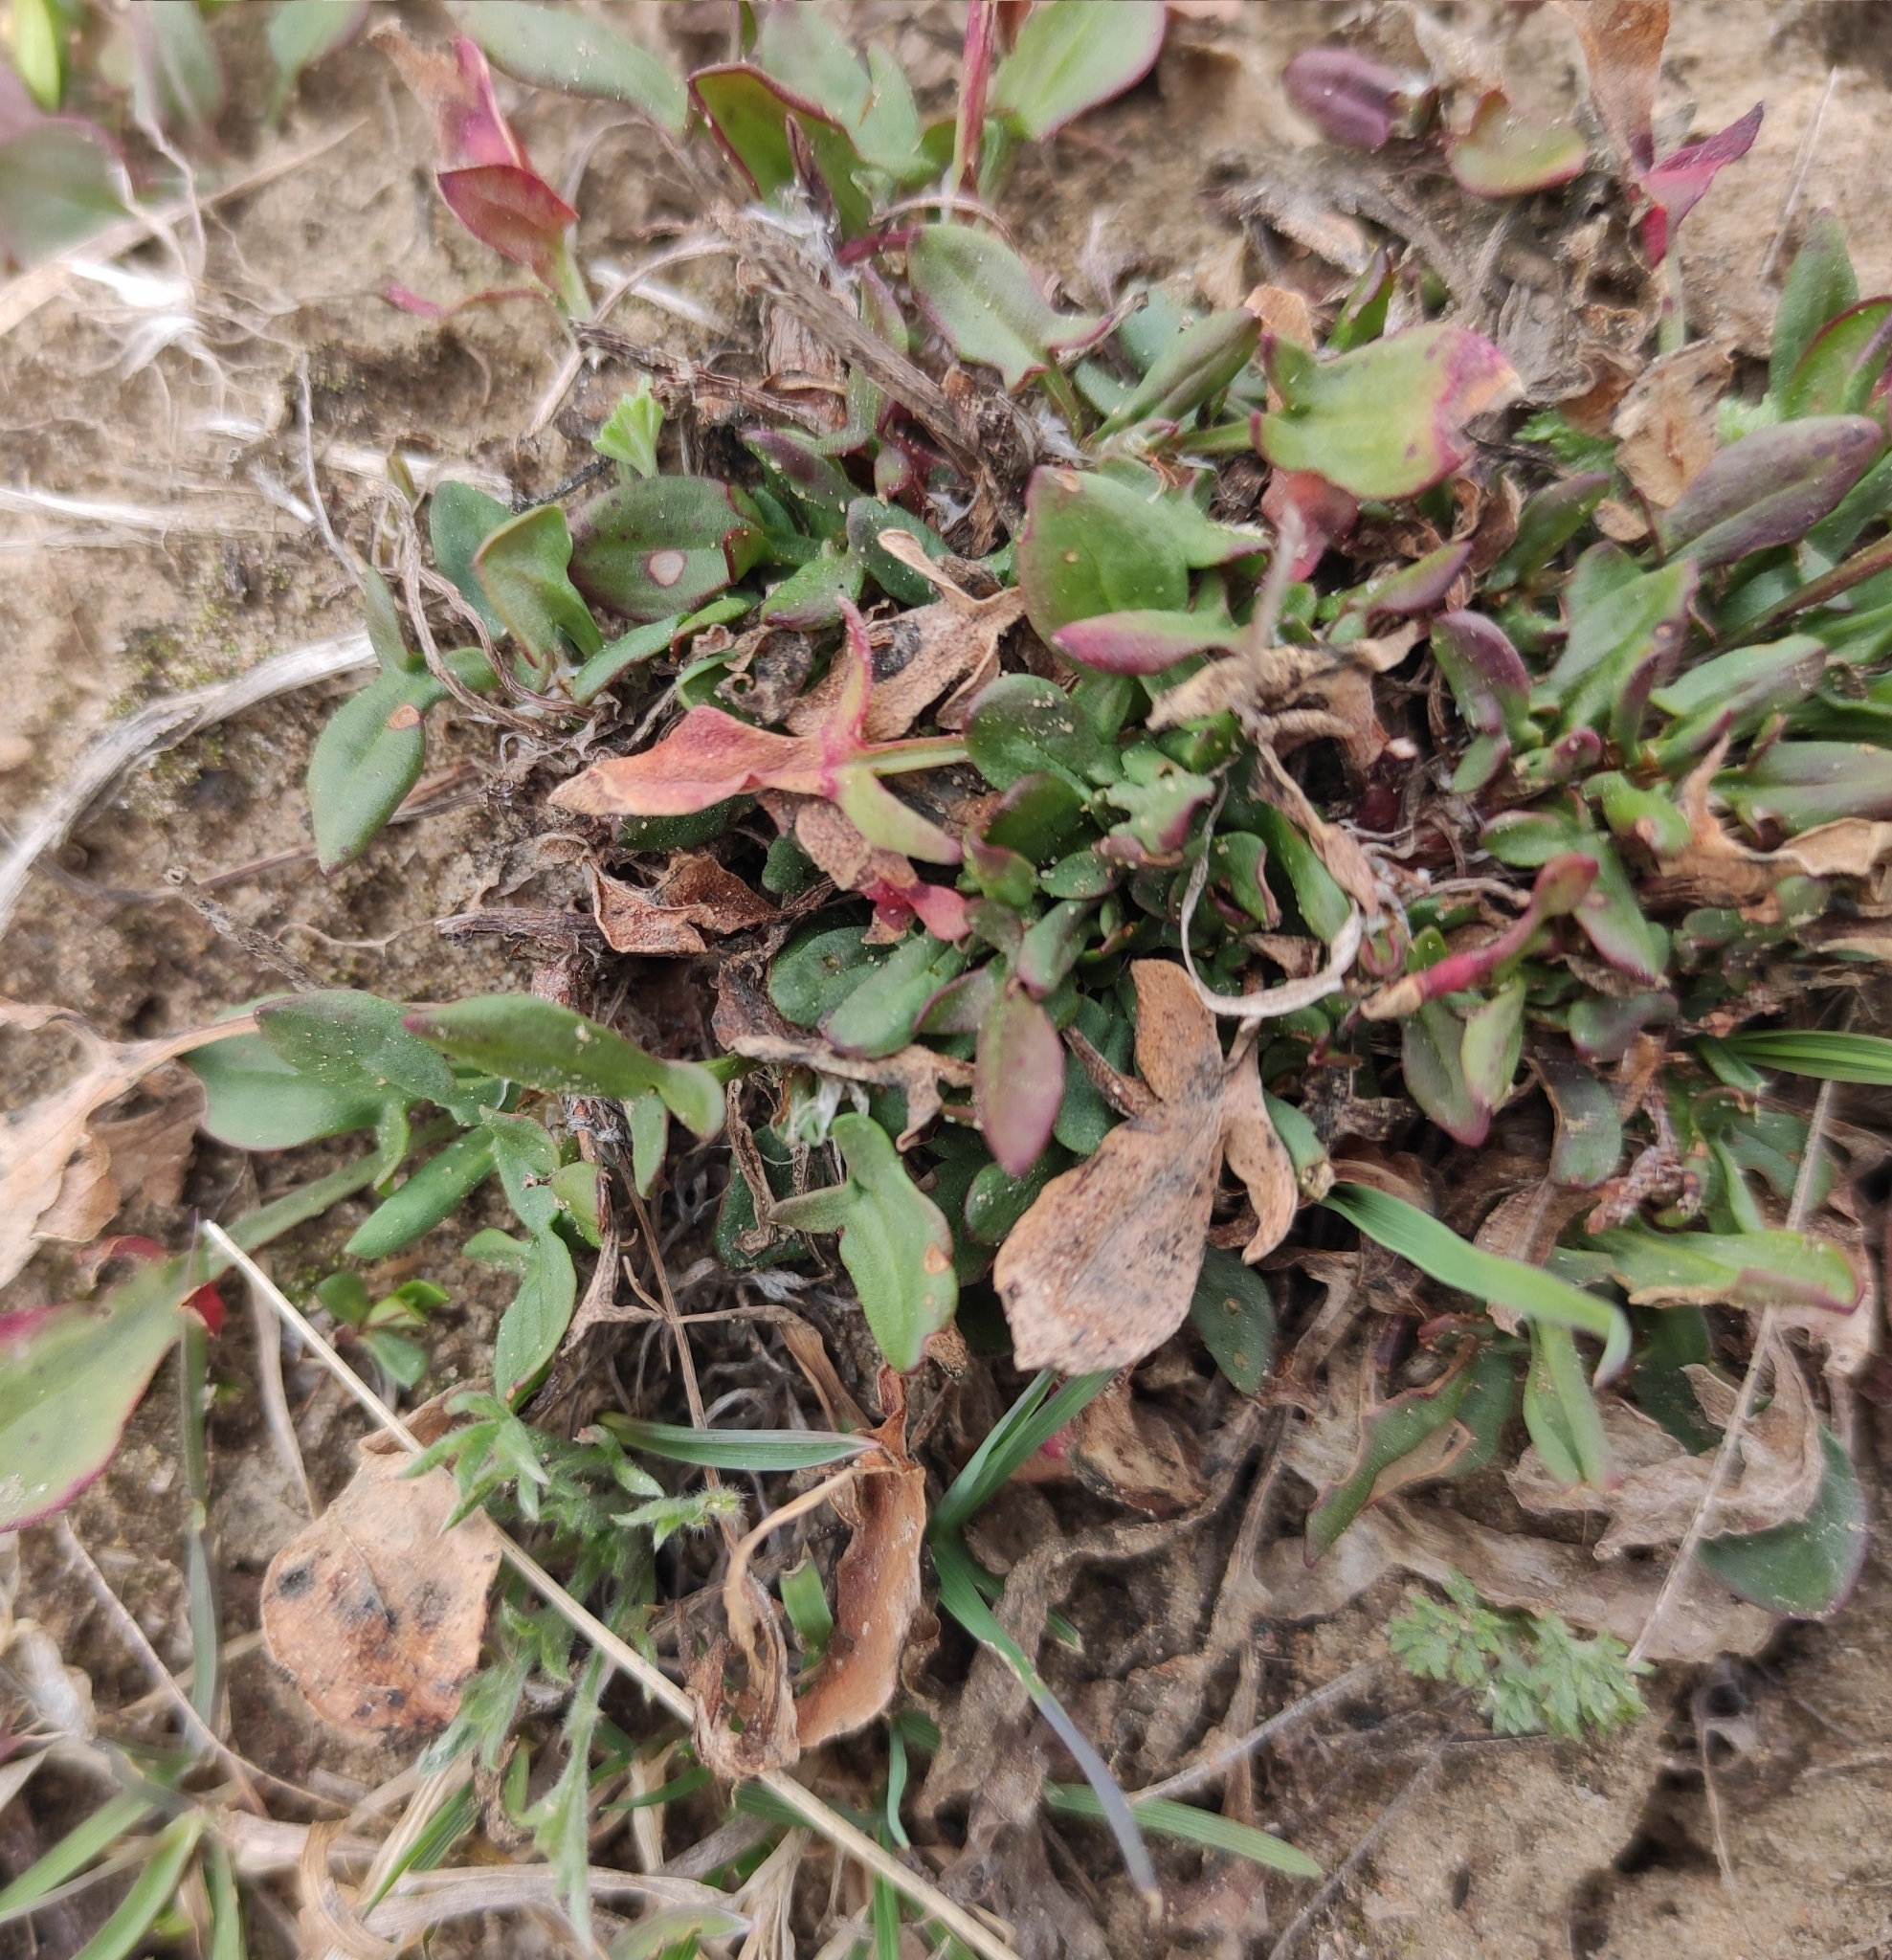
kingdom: Plantae
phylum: Tracheophyta
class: Magnoliopsida
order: Caryophyllales
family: Polygonaceae
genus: Rumex
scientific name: Rumex acetosella
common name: Common sheep sorrel
